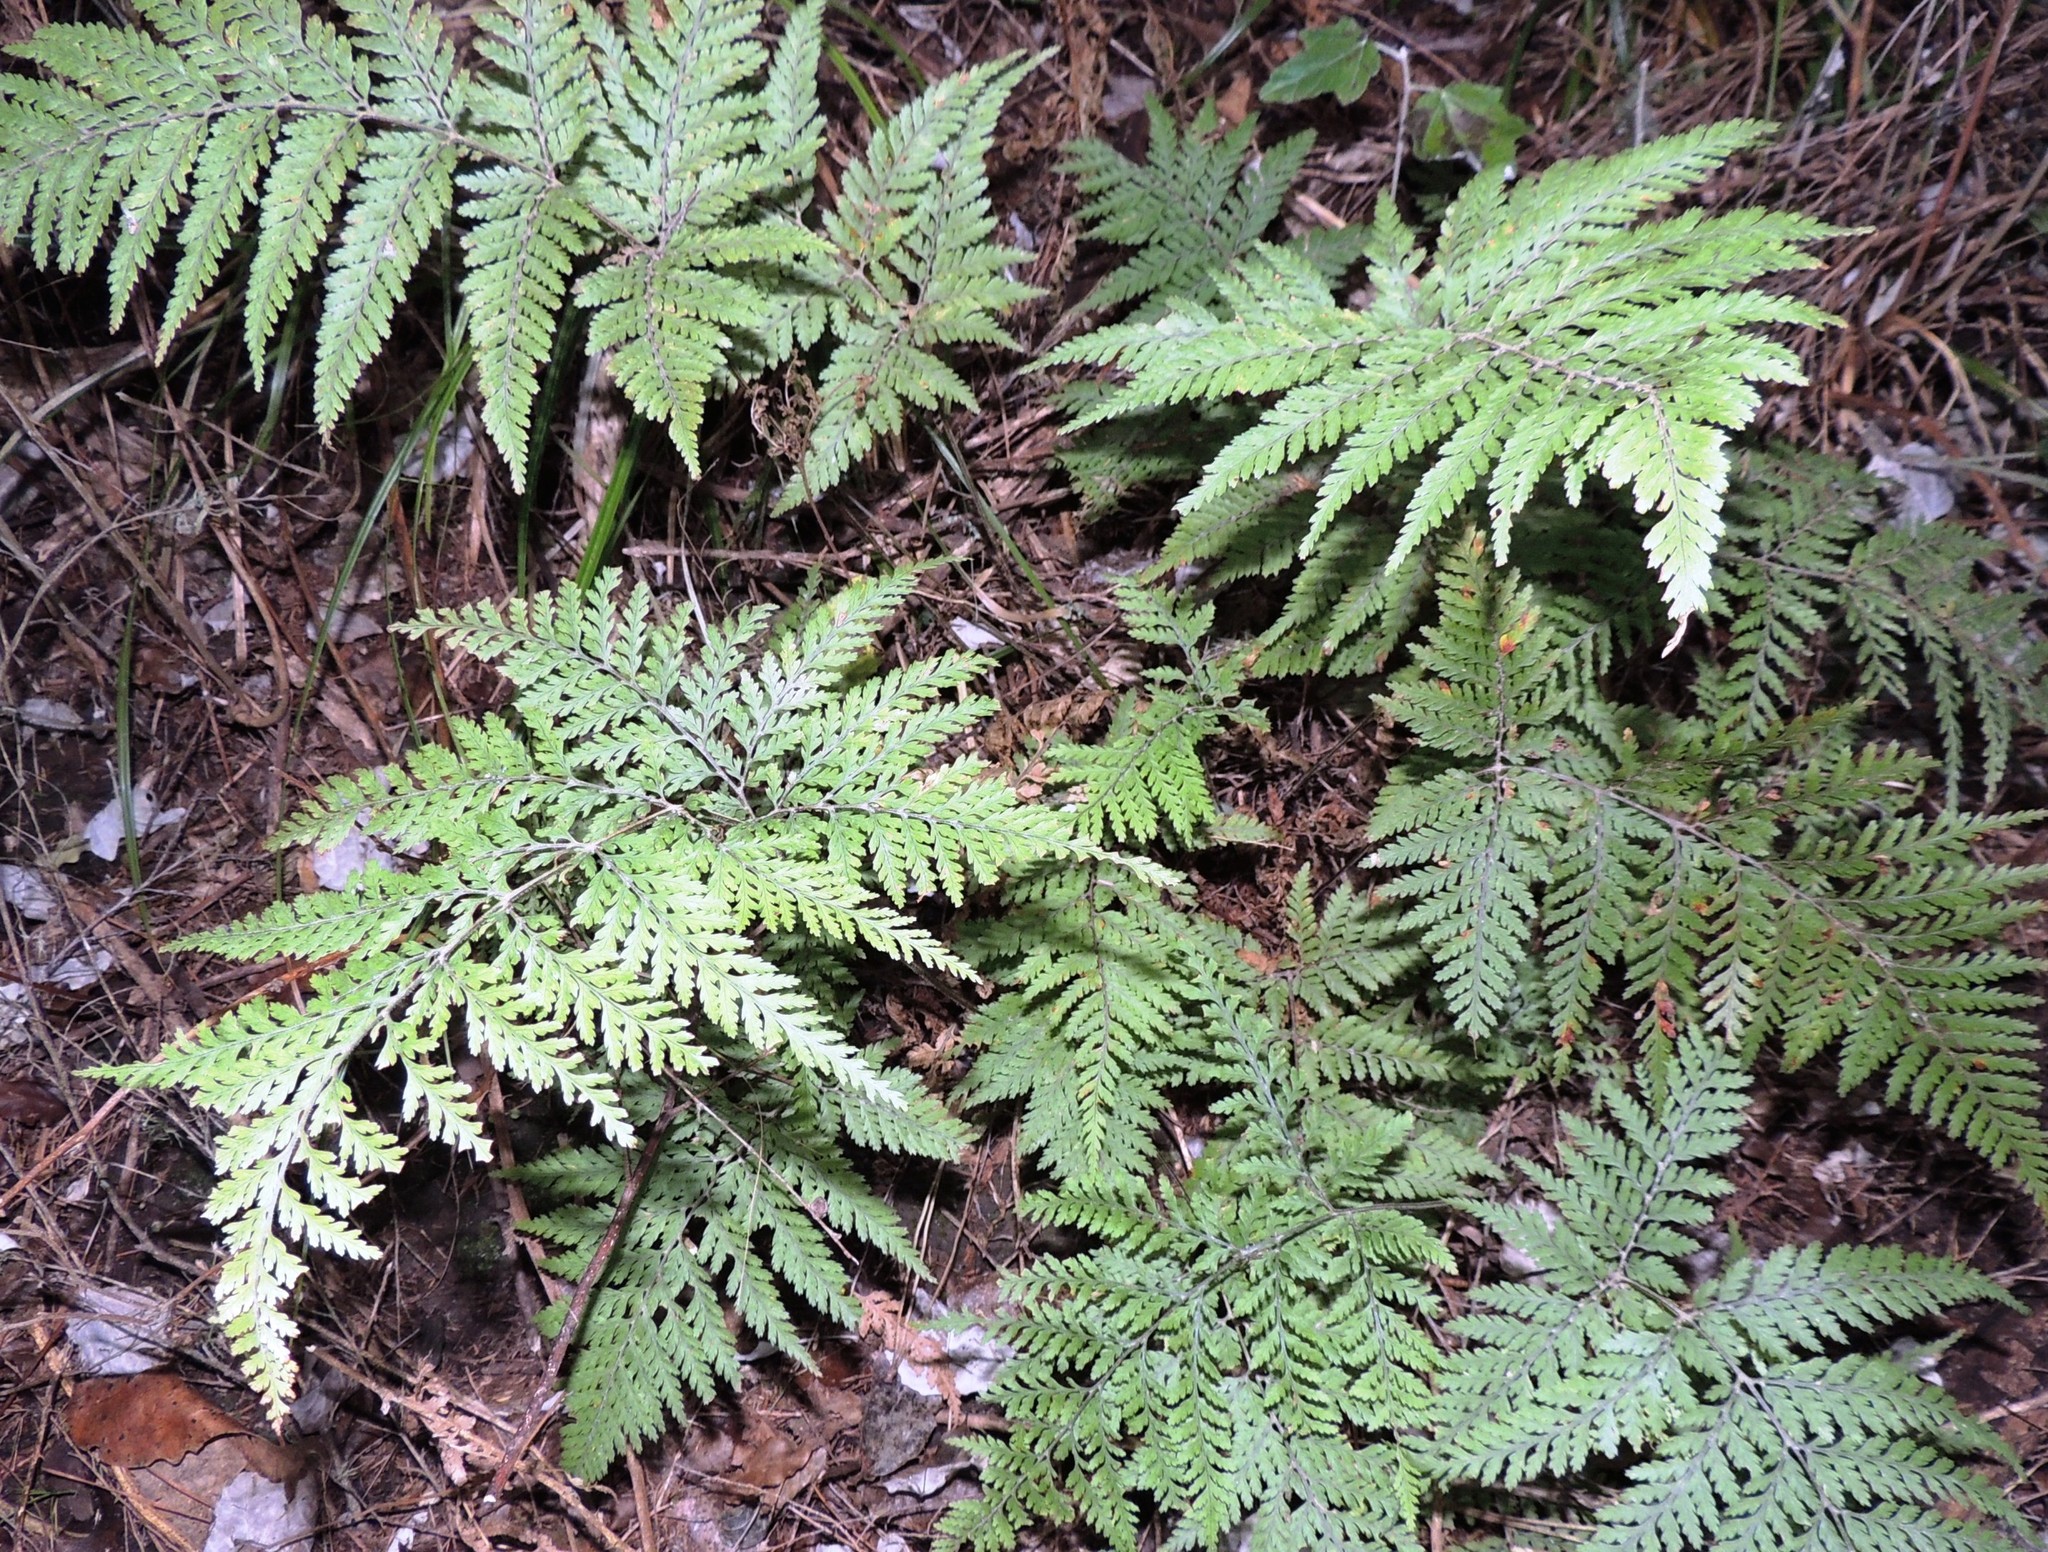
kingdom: Plantae
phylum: Tracheophyta
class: Polypodiopsida
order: Polypodiales
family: Dryopteridaceae
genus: Parapolystichum
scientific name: Parapolystichum microsorum
